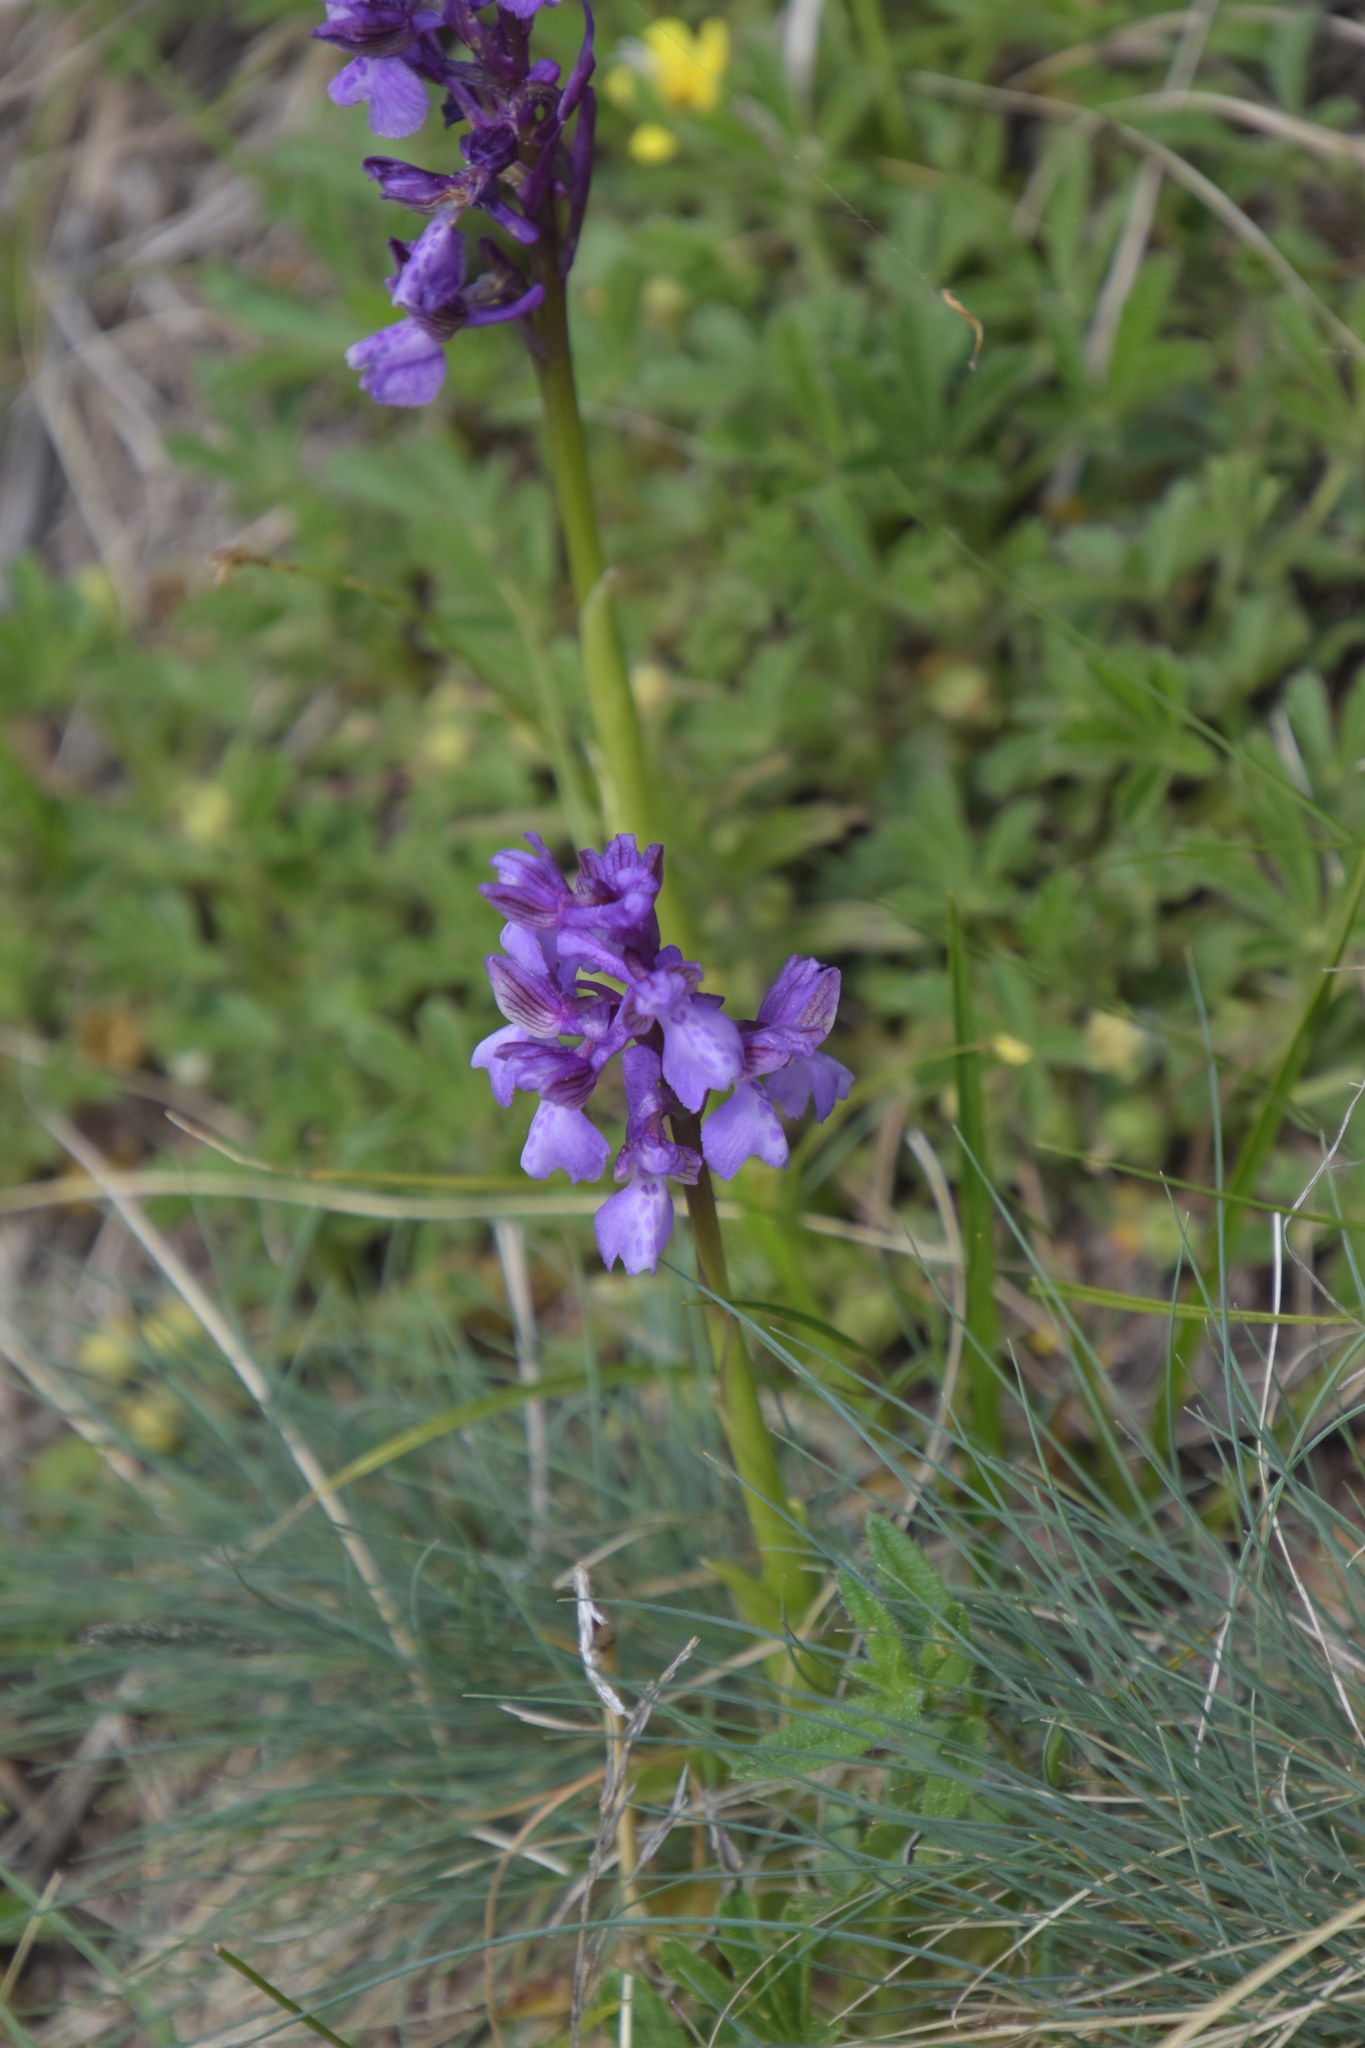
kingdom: Plantae
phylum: Tracheophyta
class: Liliopsida
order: Asparagales
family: Orchidaceae
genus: Anacamptis
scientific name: Anacamptis morio
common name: Green-winged orchid
